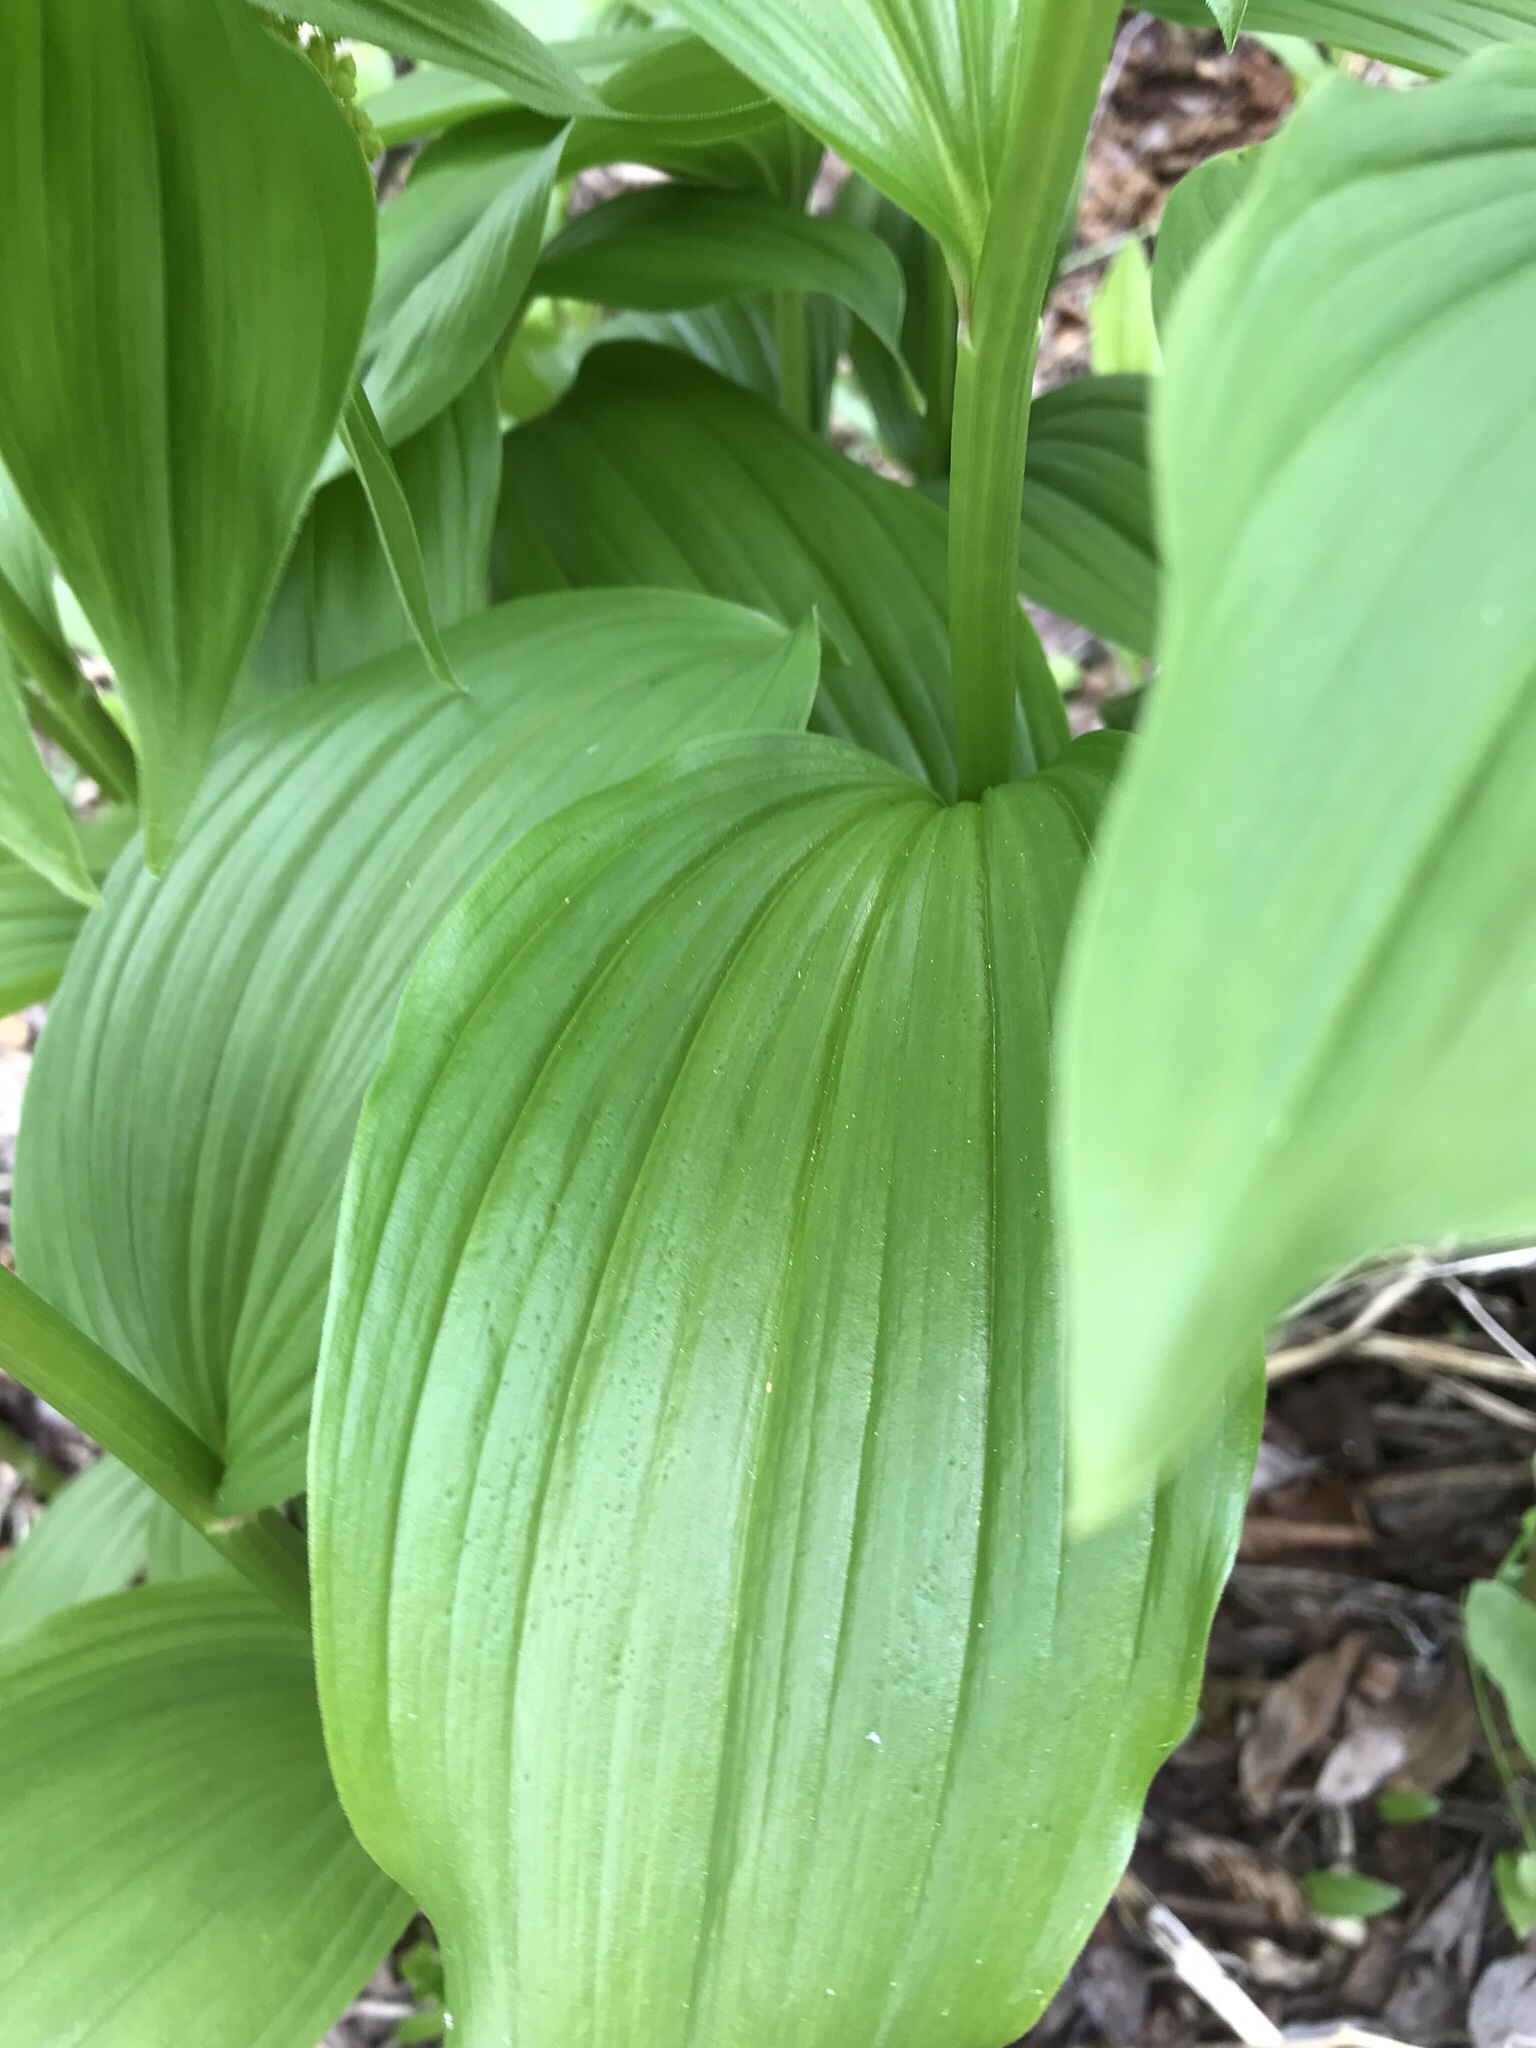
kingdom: Plantae
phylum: Tracheophyta
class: Liliopsida
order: Asparagales
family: Asparagaceae
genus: Maianthemum
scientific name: Maianthemum racemosum
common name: False spikenard
